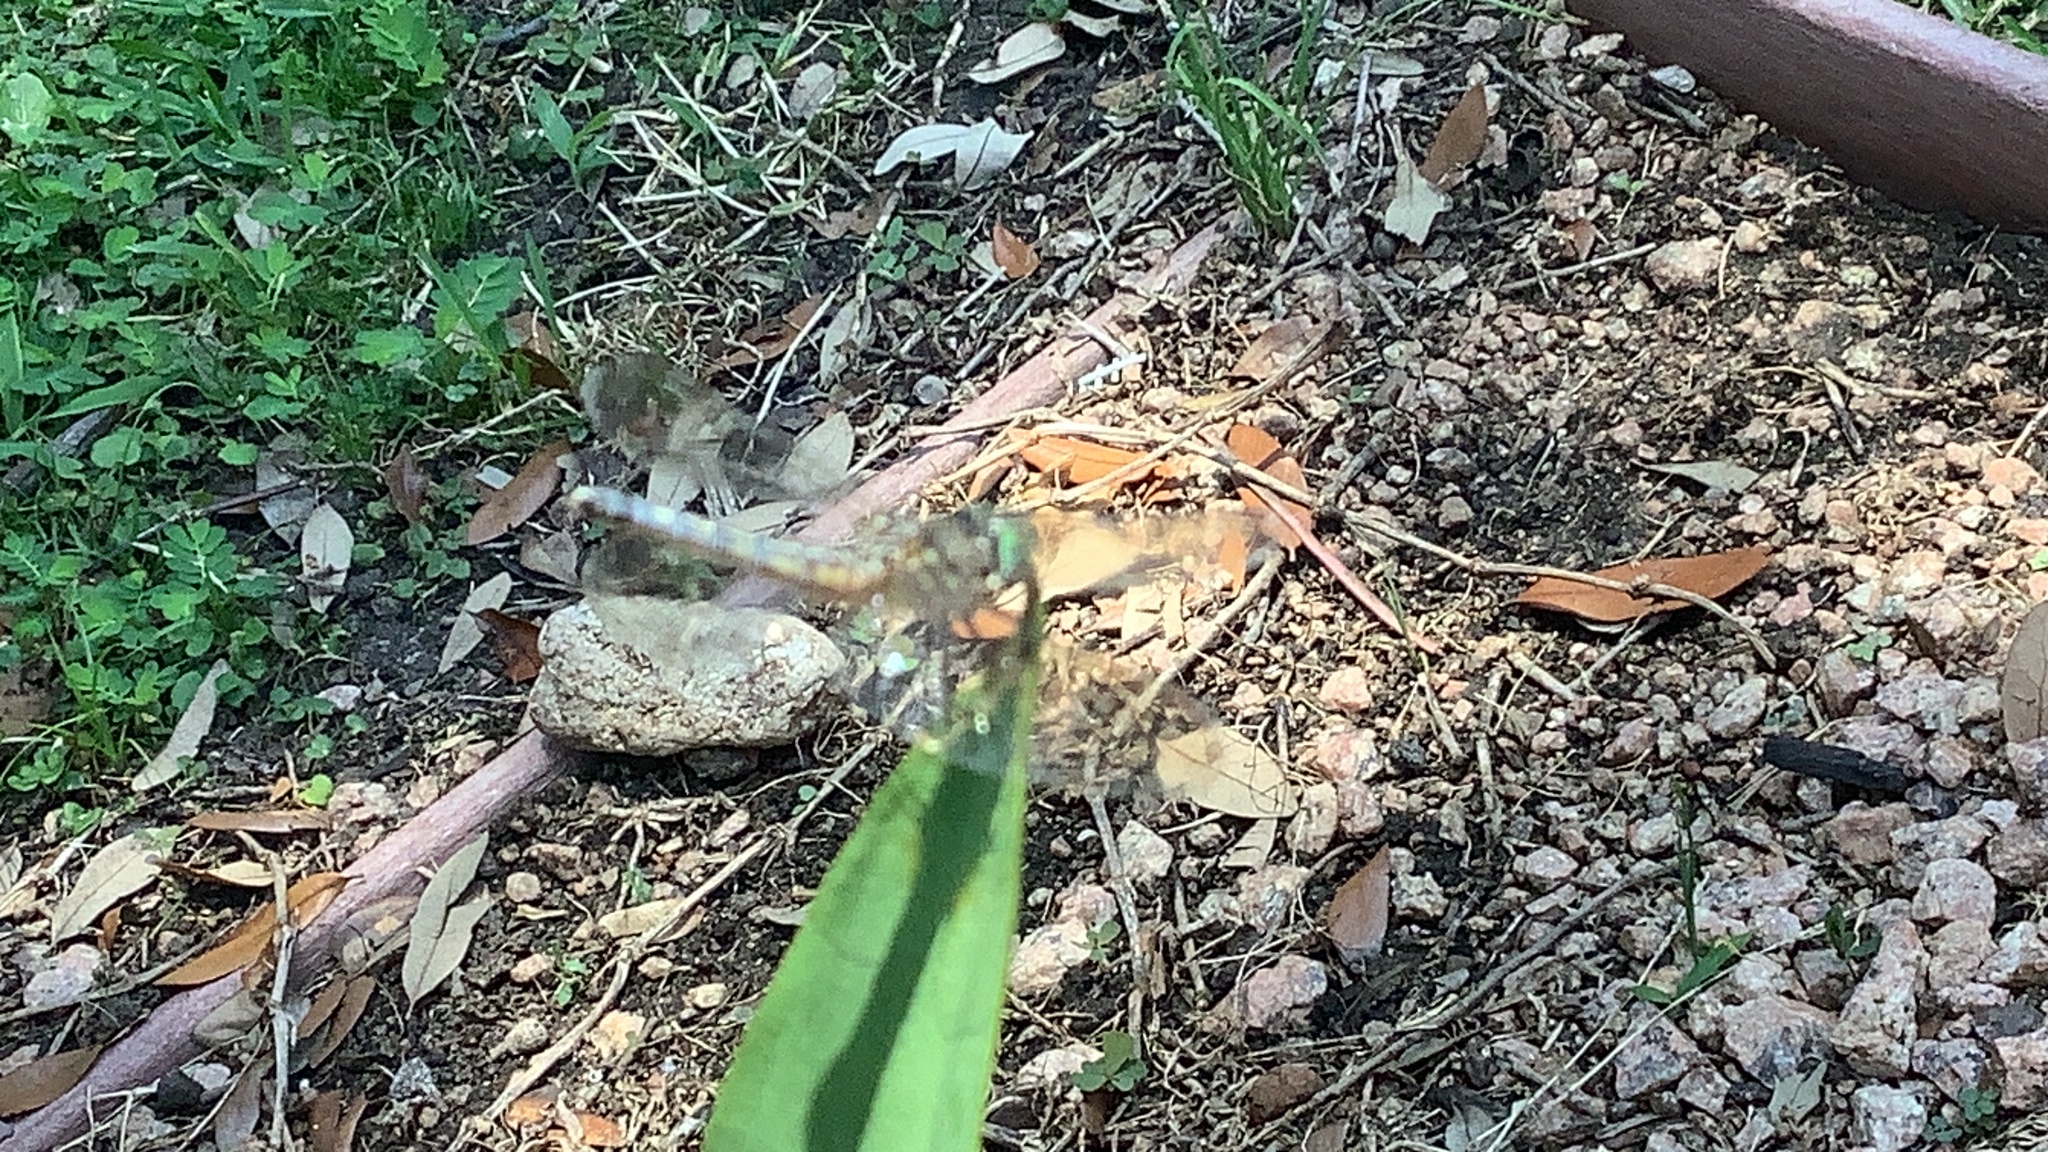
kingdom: Animalia
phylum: Arthropoda
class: Insecta
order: Odonata
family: Libellulidae
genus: Pachydiplax
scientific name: Pachydiplax longipennis
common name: Blue dasher
